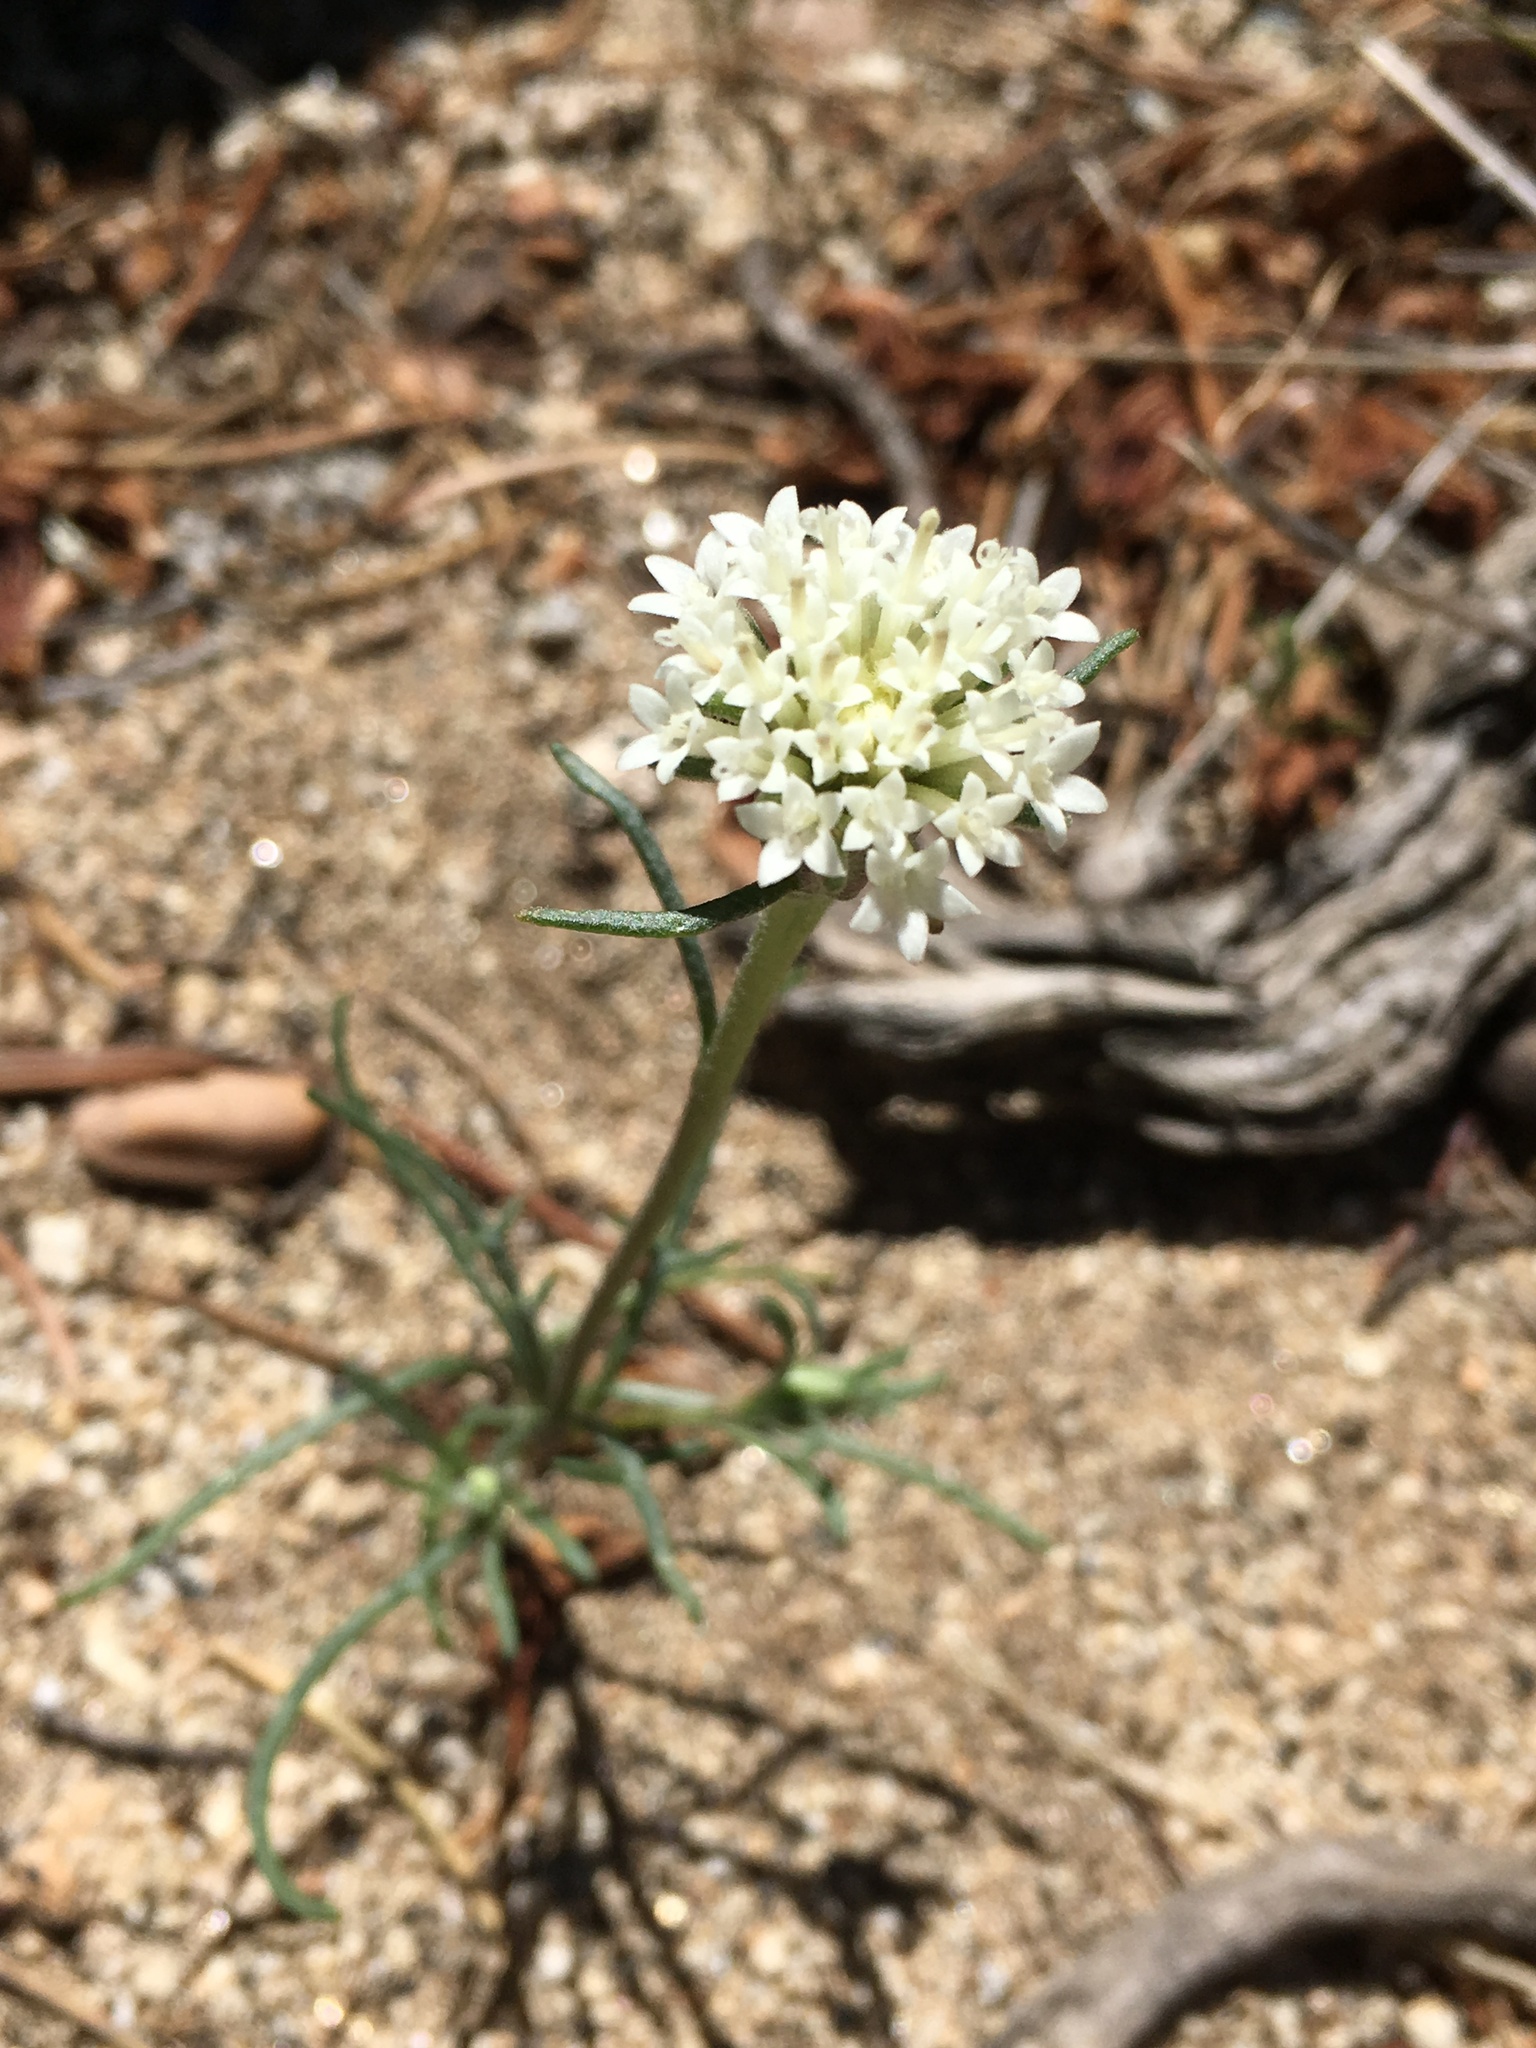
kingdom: Plantae
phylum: Tracheophyta
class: Magnoliopsida
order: Asterales
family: Asteraceae
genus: Chaenactis
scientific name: Chaenactis xantiana
